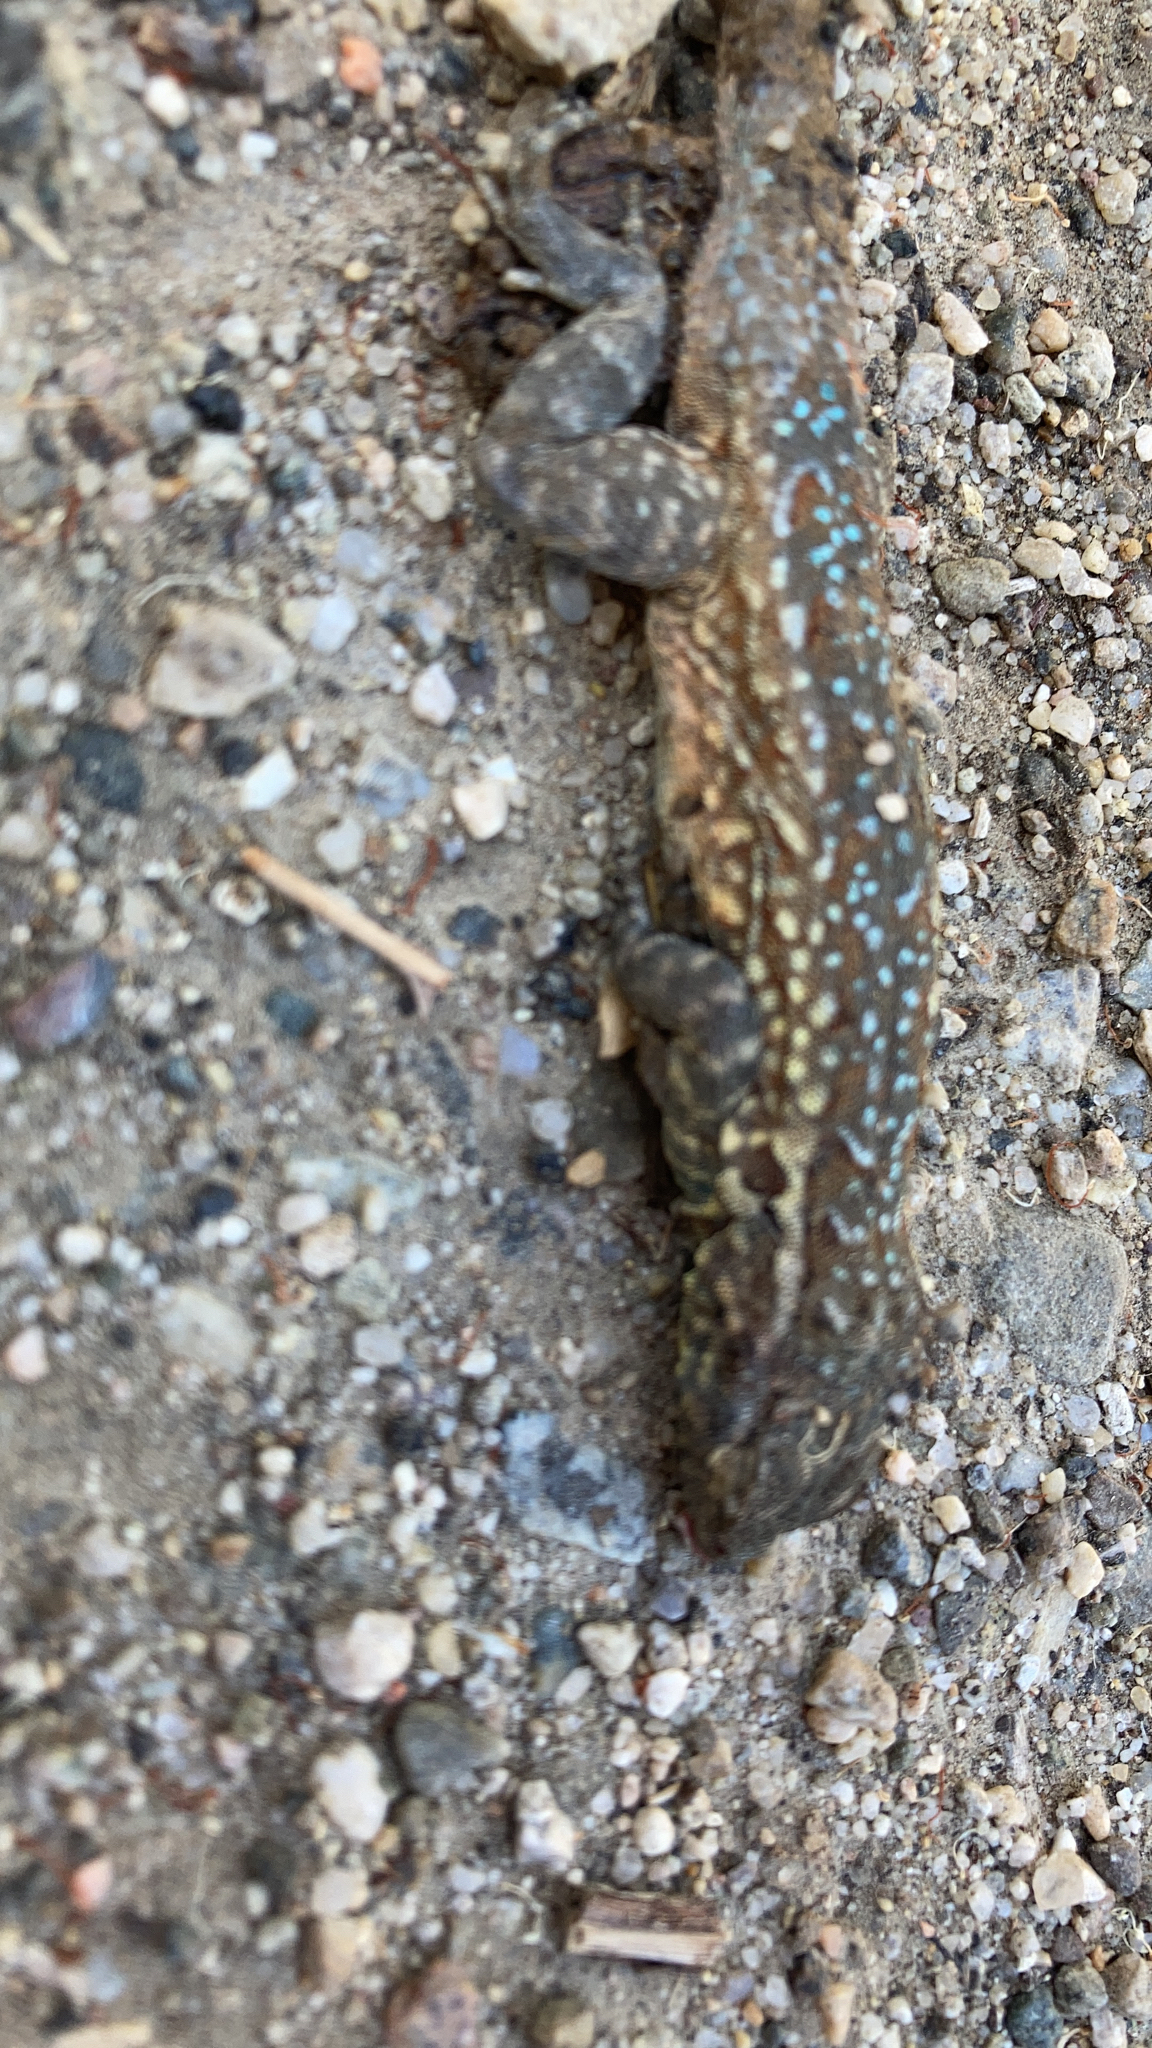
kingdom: Animalia
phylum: Chordata
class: Squamata
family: Phrynosomatidae
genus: Uta
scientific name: Uta stansburiana
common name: Side-blotched lizard
